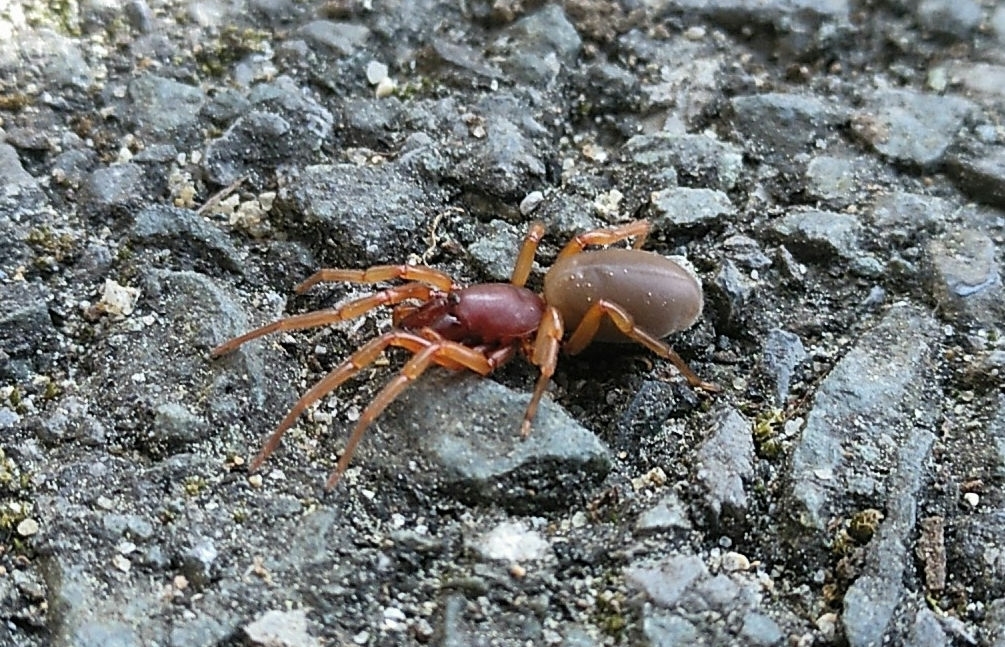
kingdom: Animalia
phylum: Arthropoda
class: Arachnida
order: Araneae
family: Dysderidae
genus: Dysdera
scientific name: Dysdera crocata
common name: Woodlouse spider
